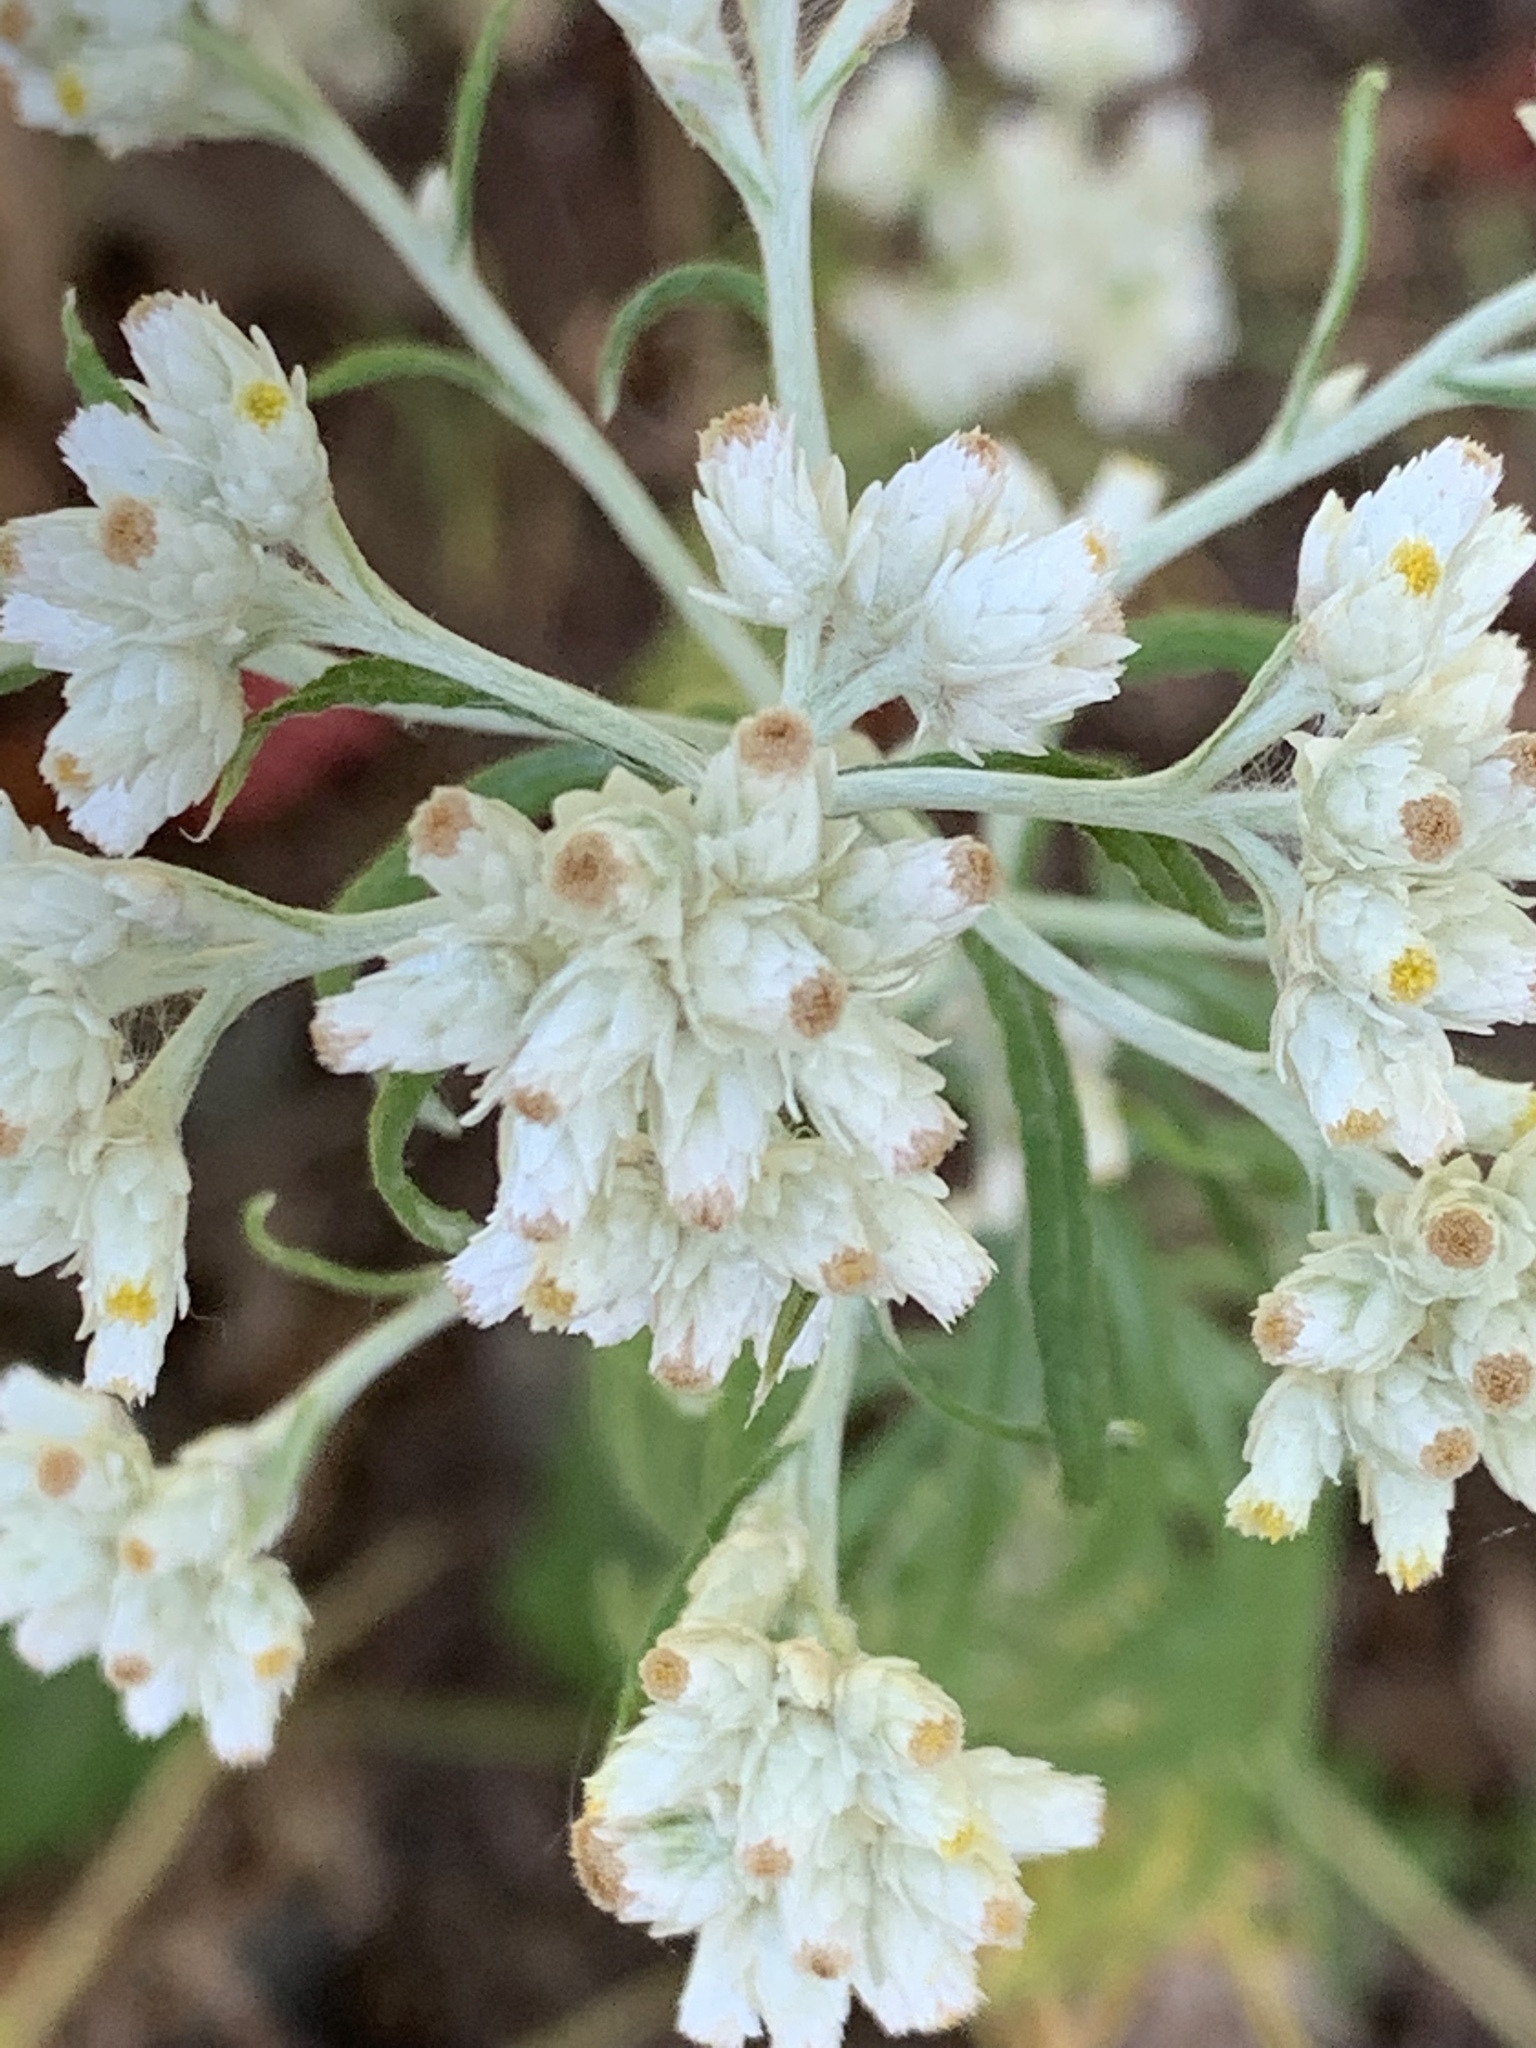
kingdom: Plantae
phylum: Tracheophyta
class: Magnoliopsida
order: Asterales
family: Asteraceae
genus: Pseudognaphalium
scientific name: Pseudognaphalium obtusifolium
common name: Eastern rabbit-tobacco
